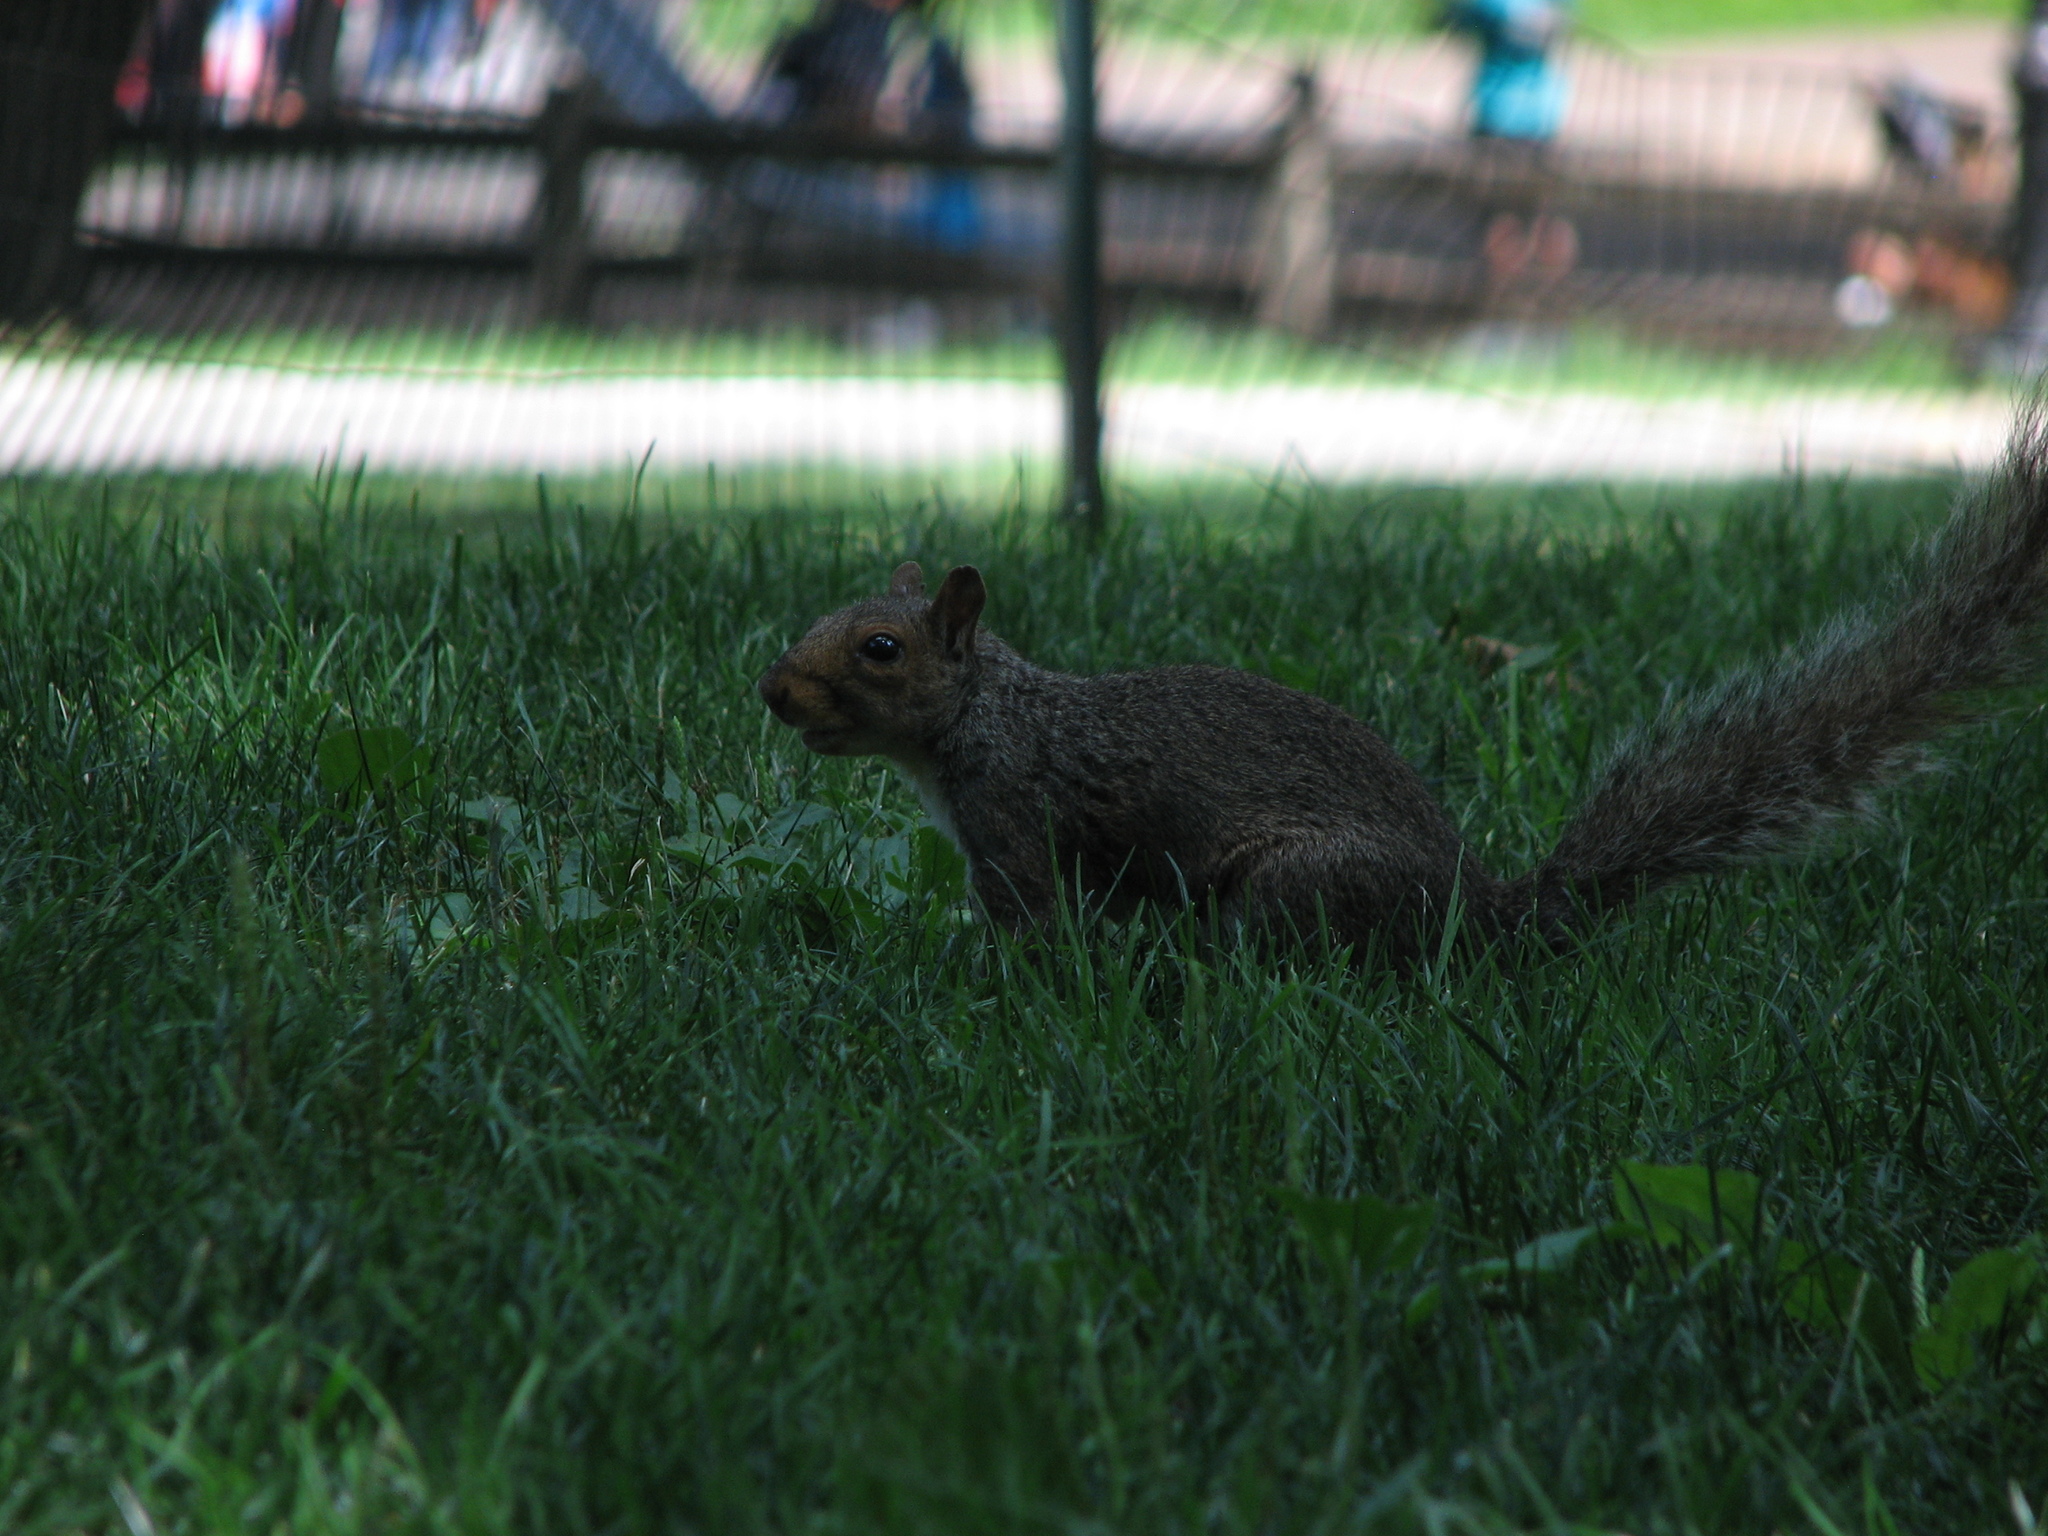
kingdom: Animalia
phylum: Chordata
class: Mammalia
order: Rodentia
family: Sciuridae
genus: Sciurus
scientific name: Sciurus carolinensis
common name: Eastern gray squirrel
